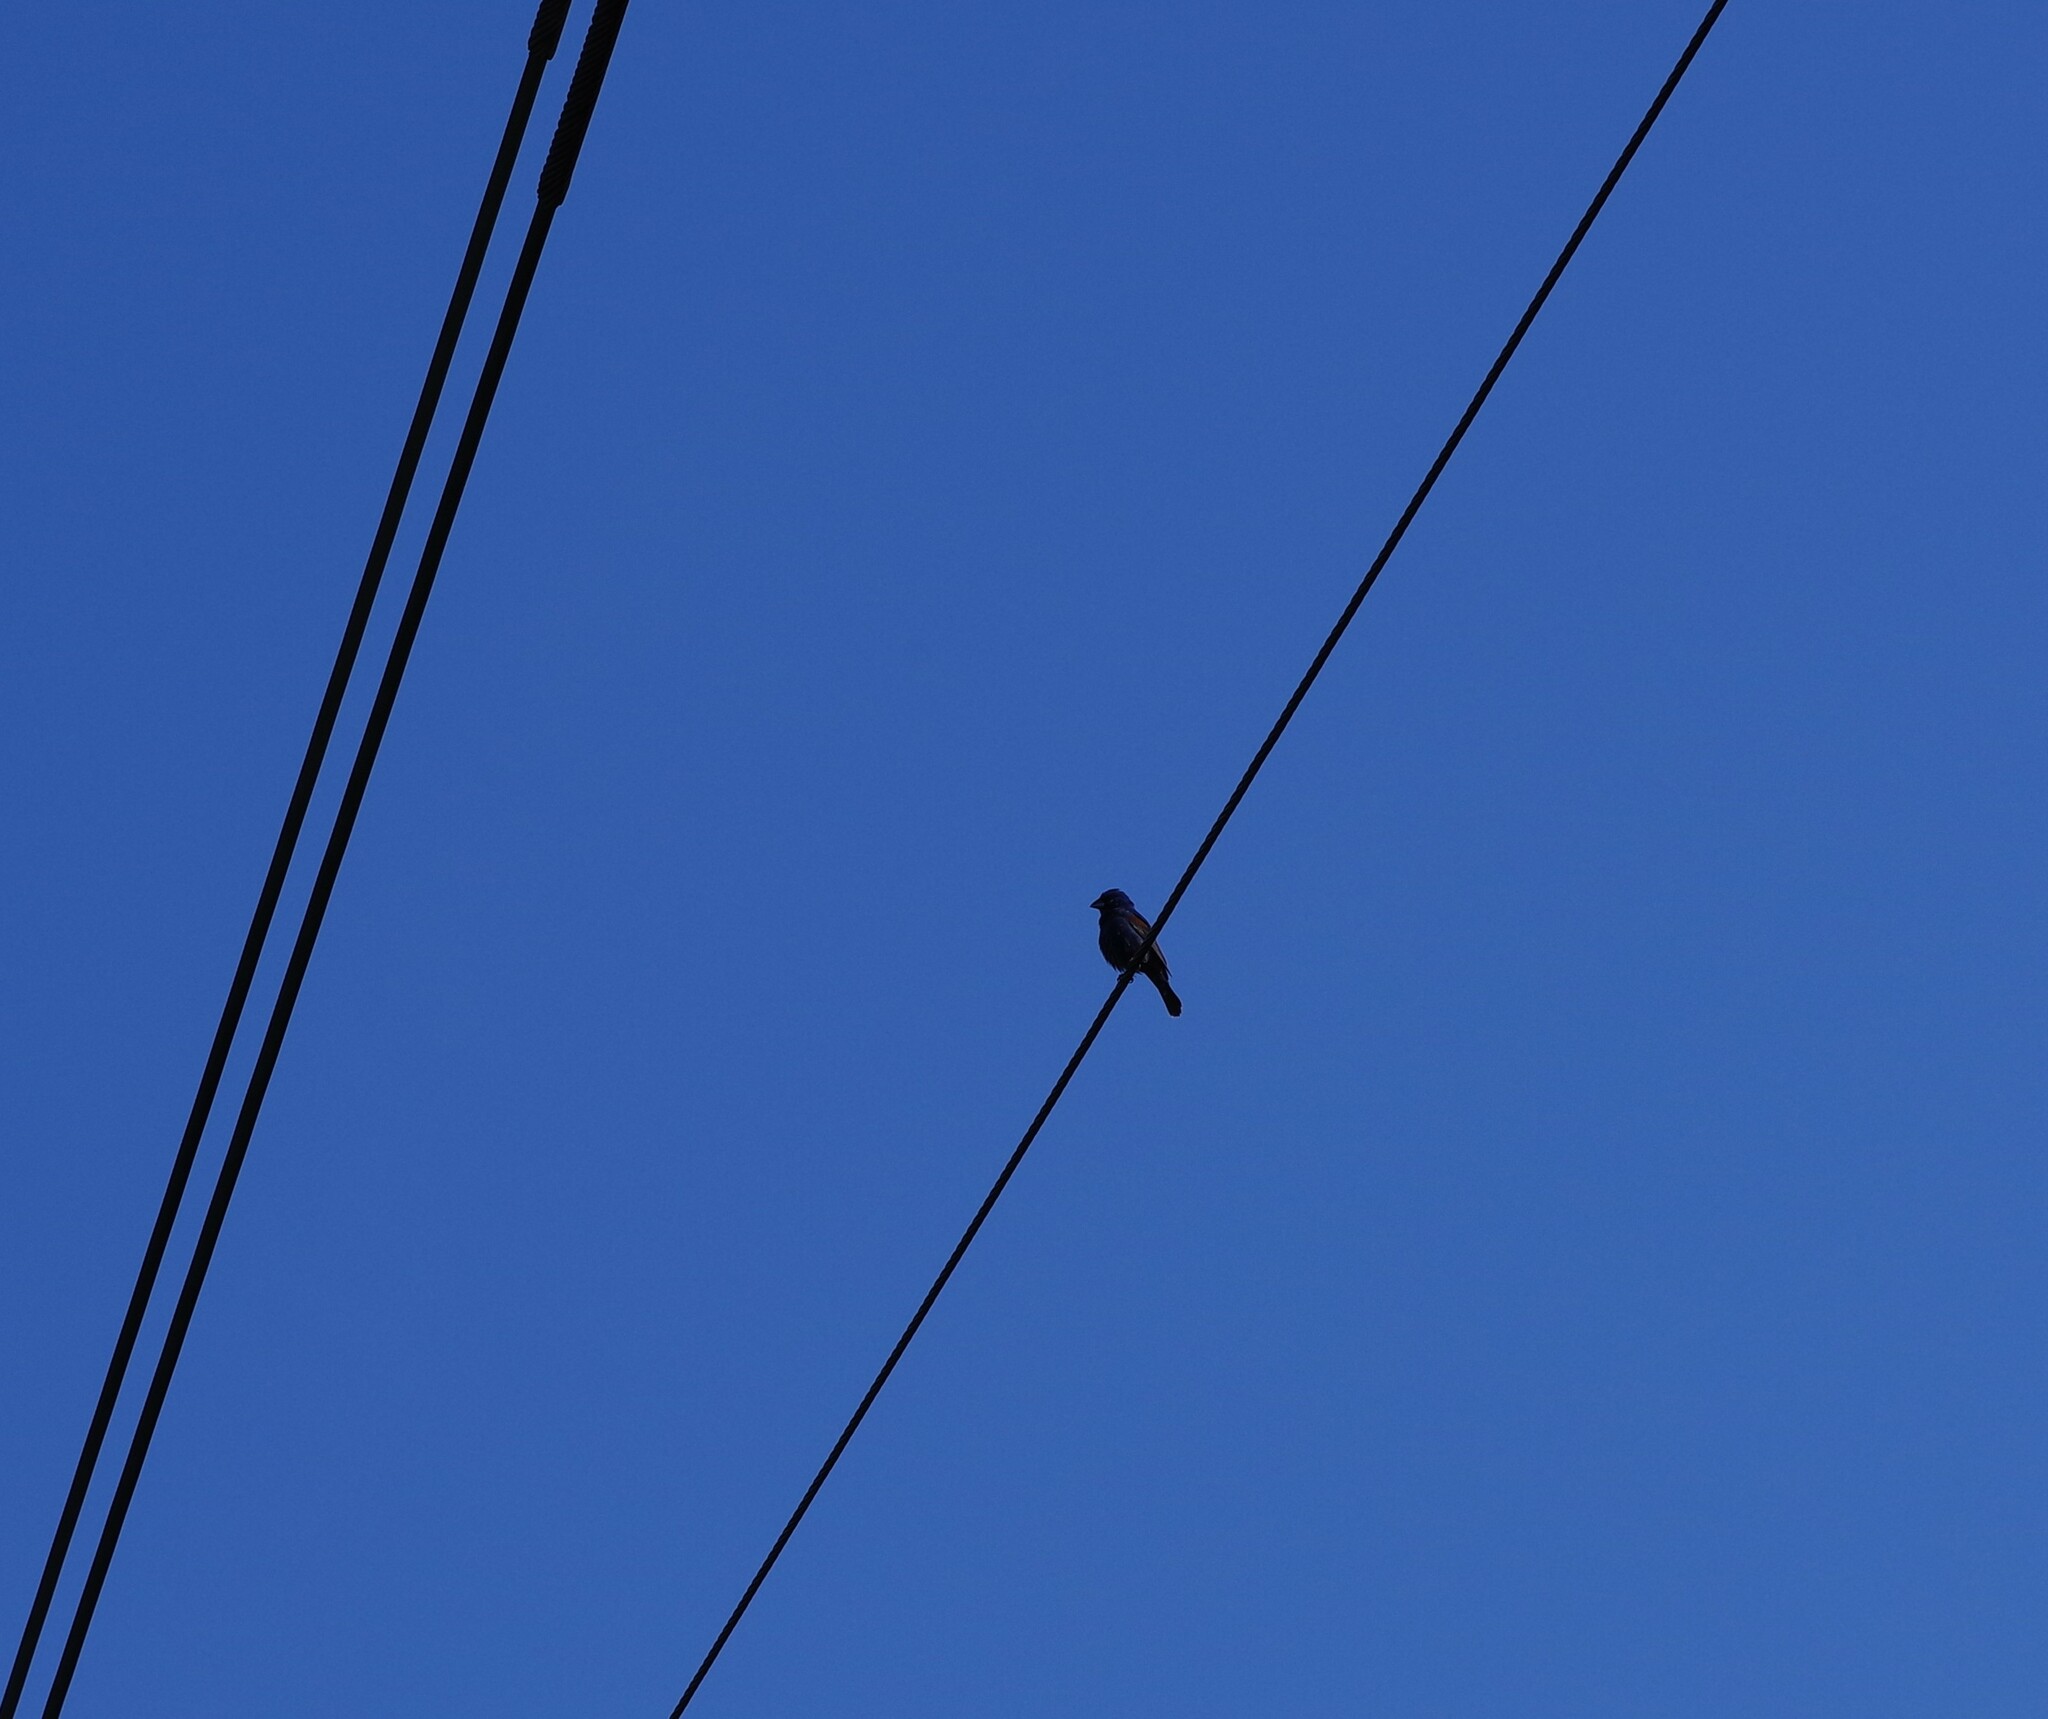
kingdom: Animalia
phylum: Chordata
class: Aves
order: Passeriformes
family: Cardinalidae
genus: Passerina
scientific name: Passerina caerulea
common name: Blue grosbeak
